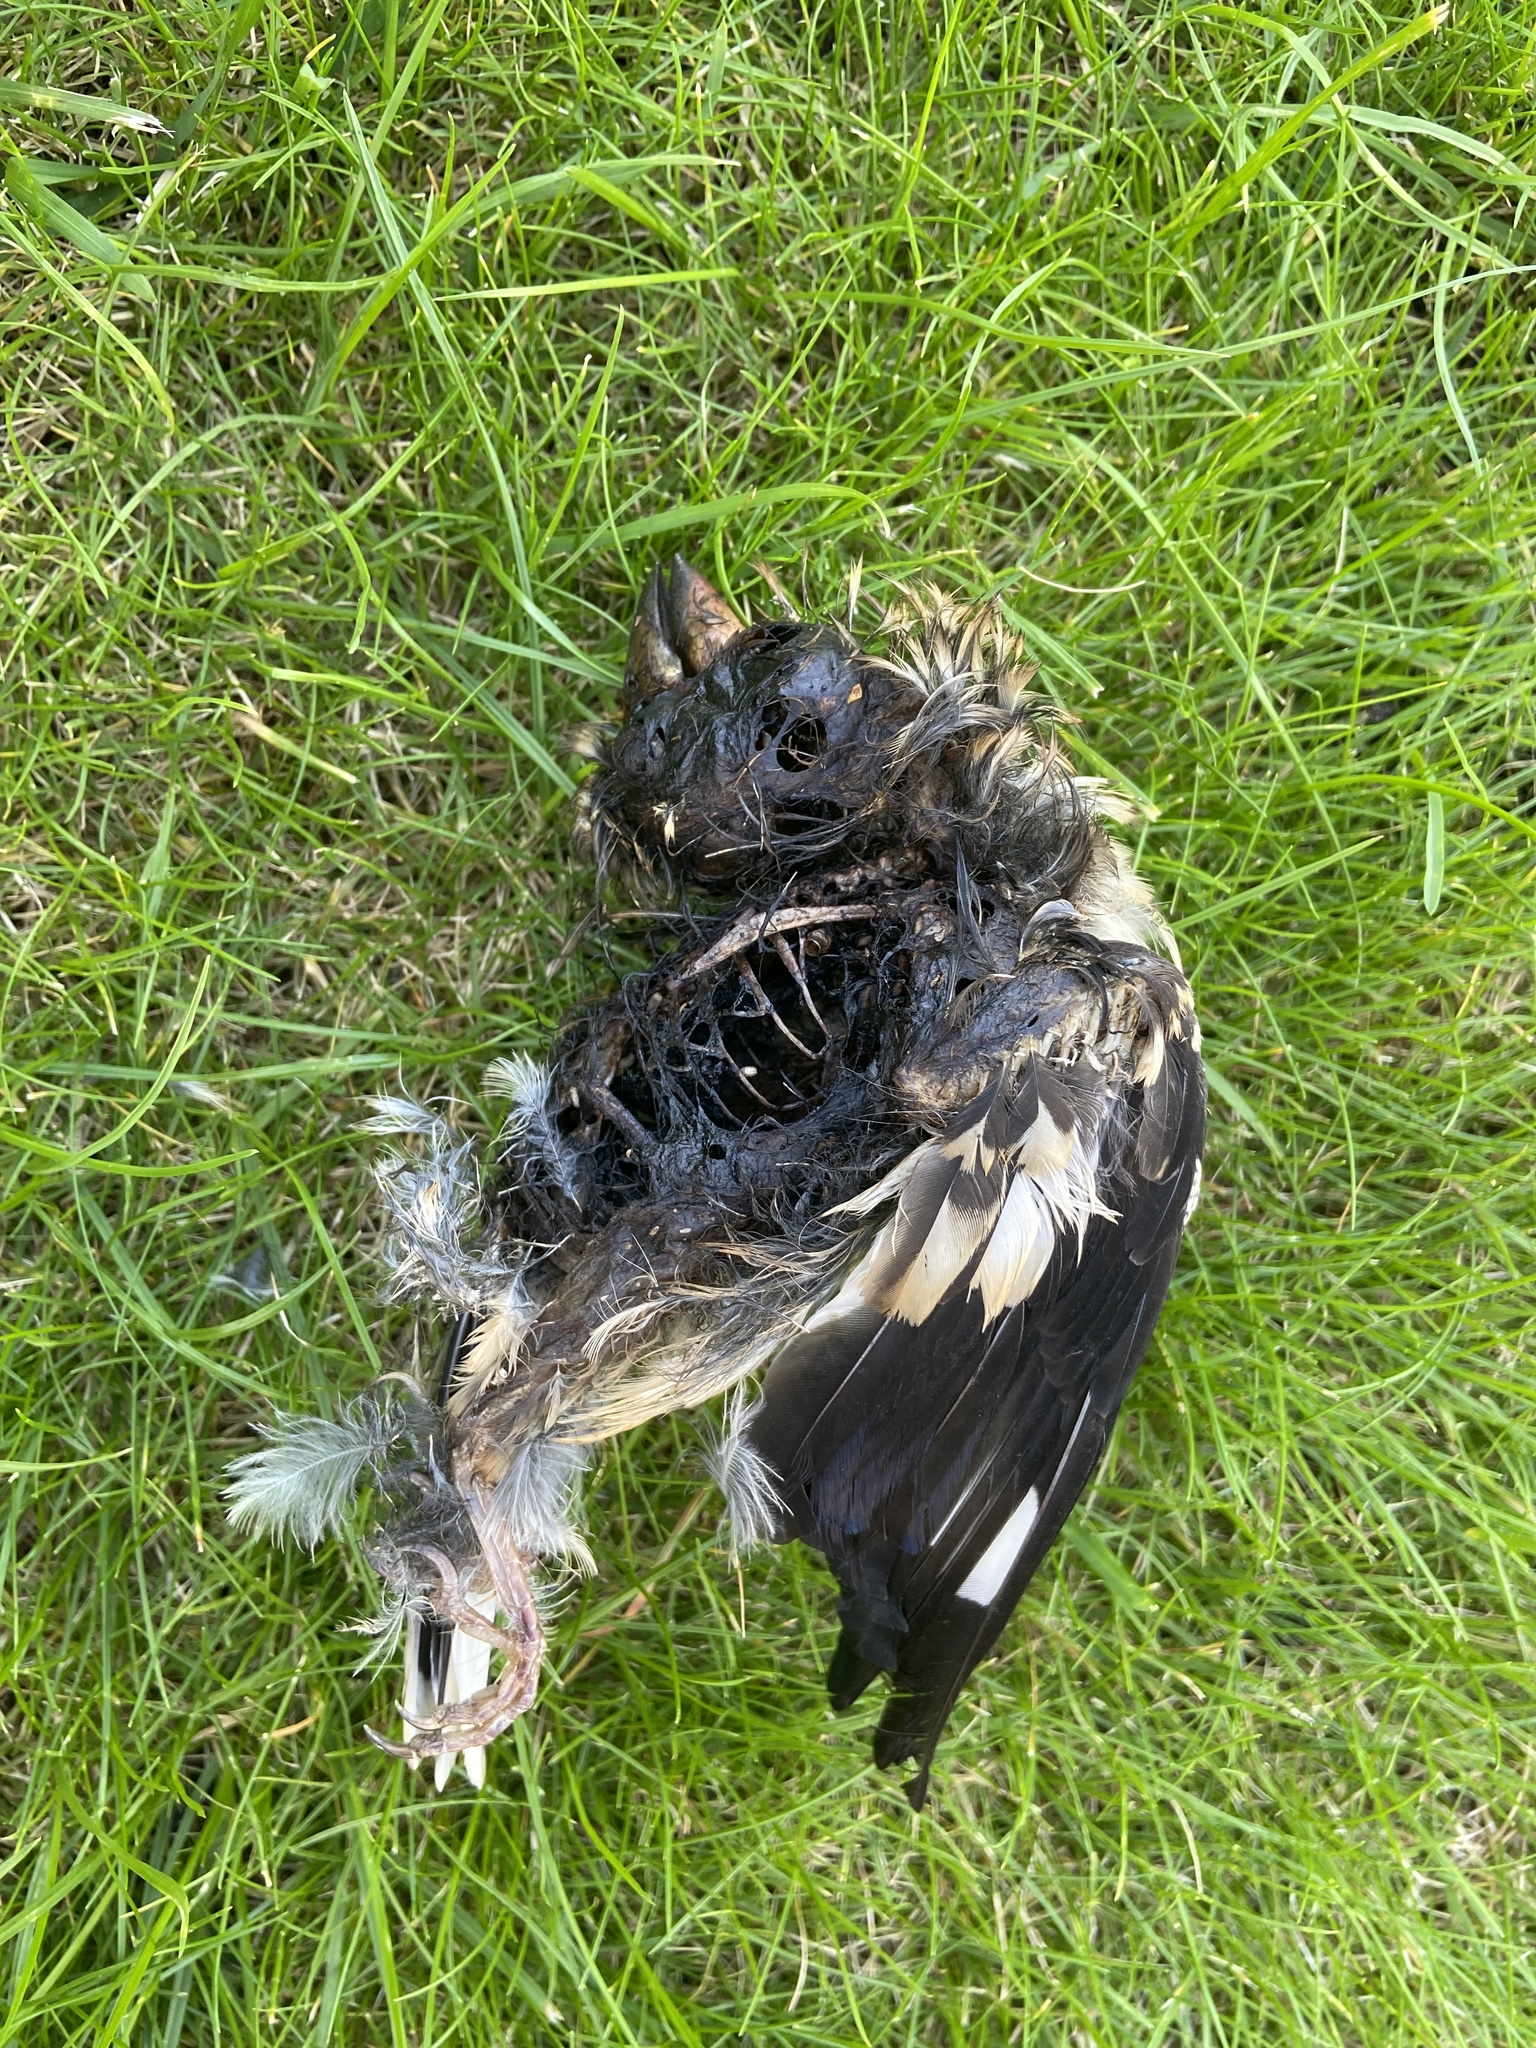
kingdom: Animalia
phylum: Chordata
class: Aves
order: Passeriformes
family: Fringillidae
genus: Coccothraustes
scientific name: Coccothraustes coccothraustes
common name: Hawfinch
